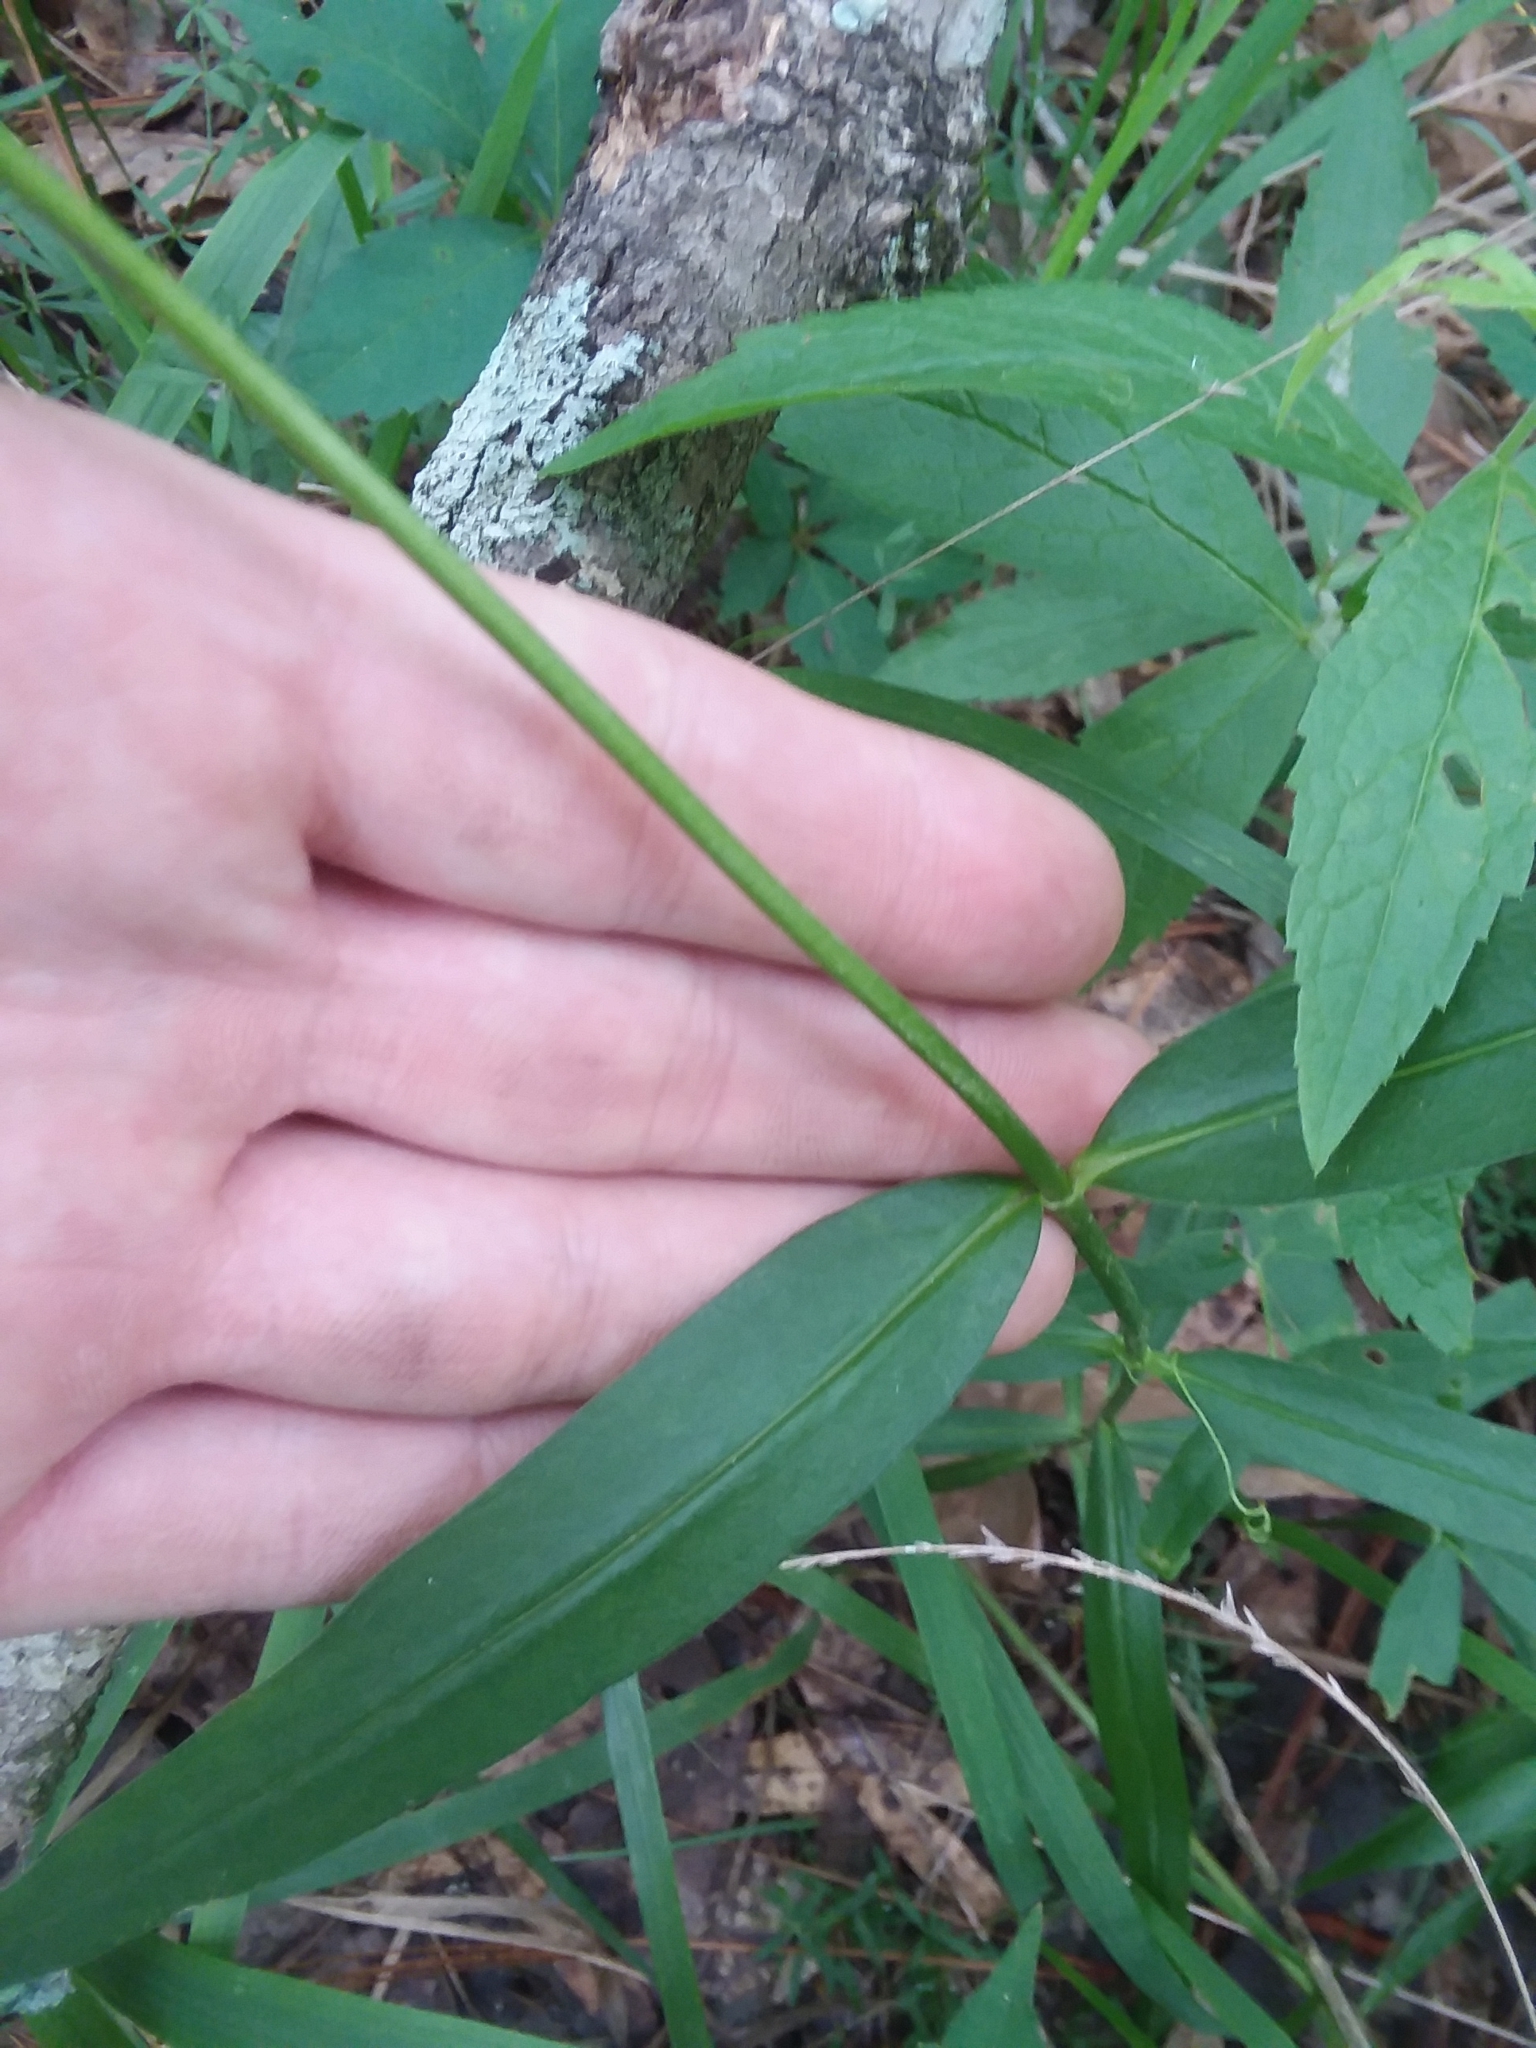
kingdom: Plantae
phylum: Tracheophyta
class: Magnoliopsida
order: Ericales
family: Polemoniaceae
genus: Phlox
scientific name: Phlox carolina
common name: Thick-leaf phlox
